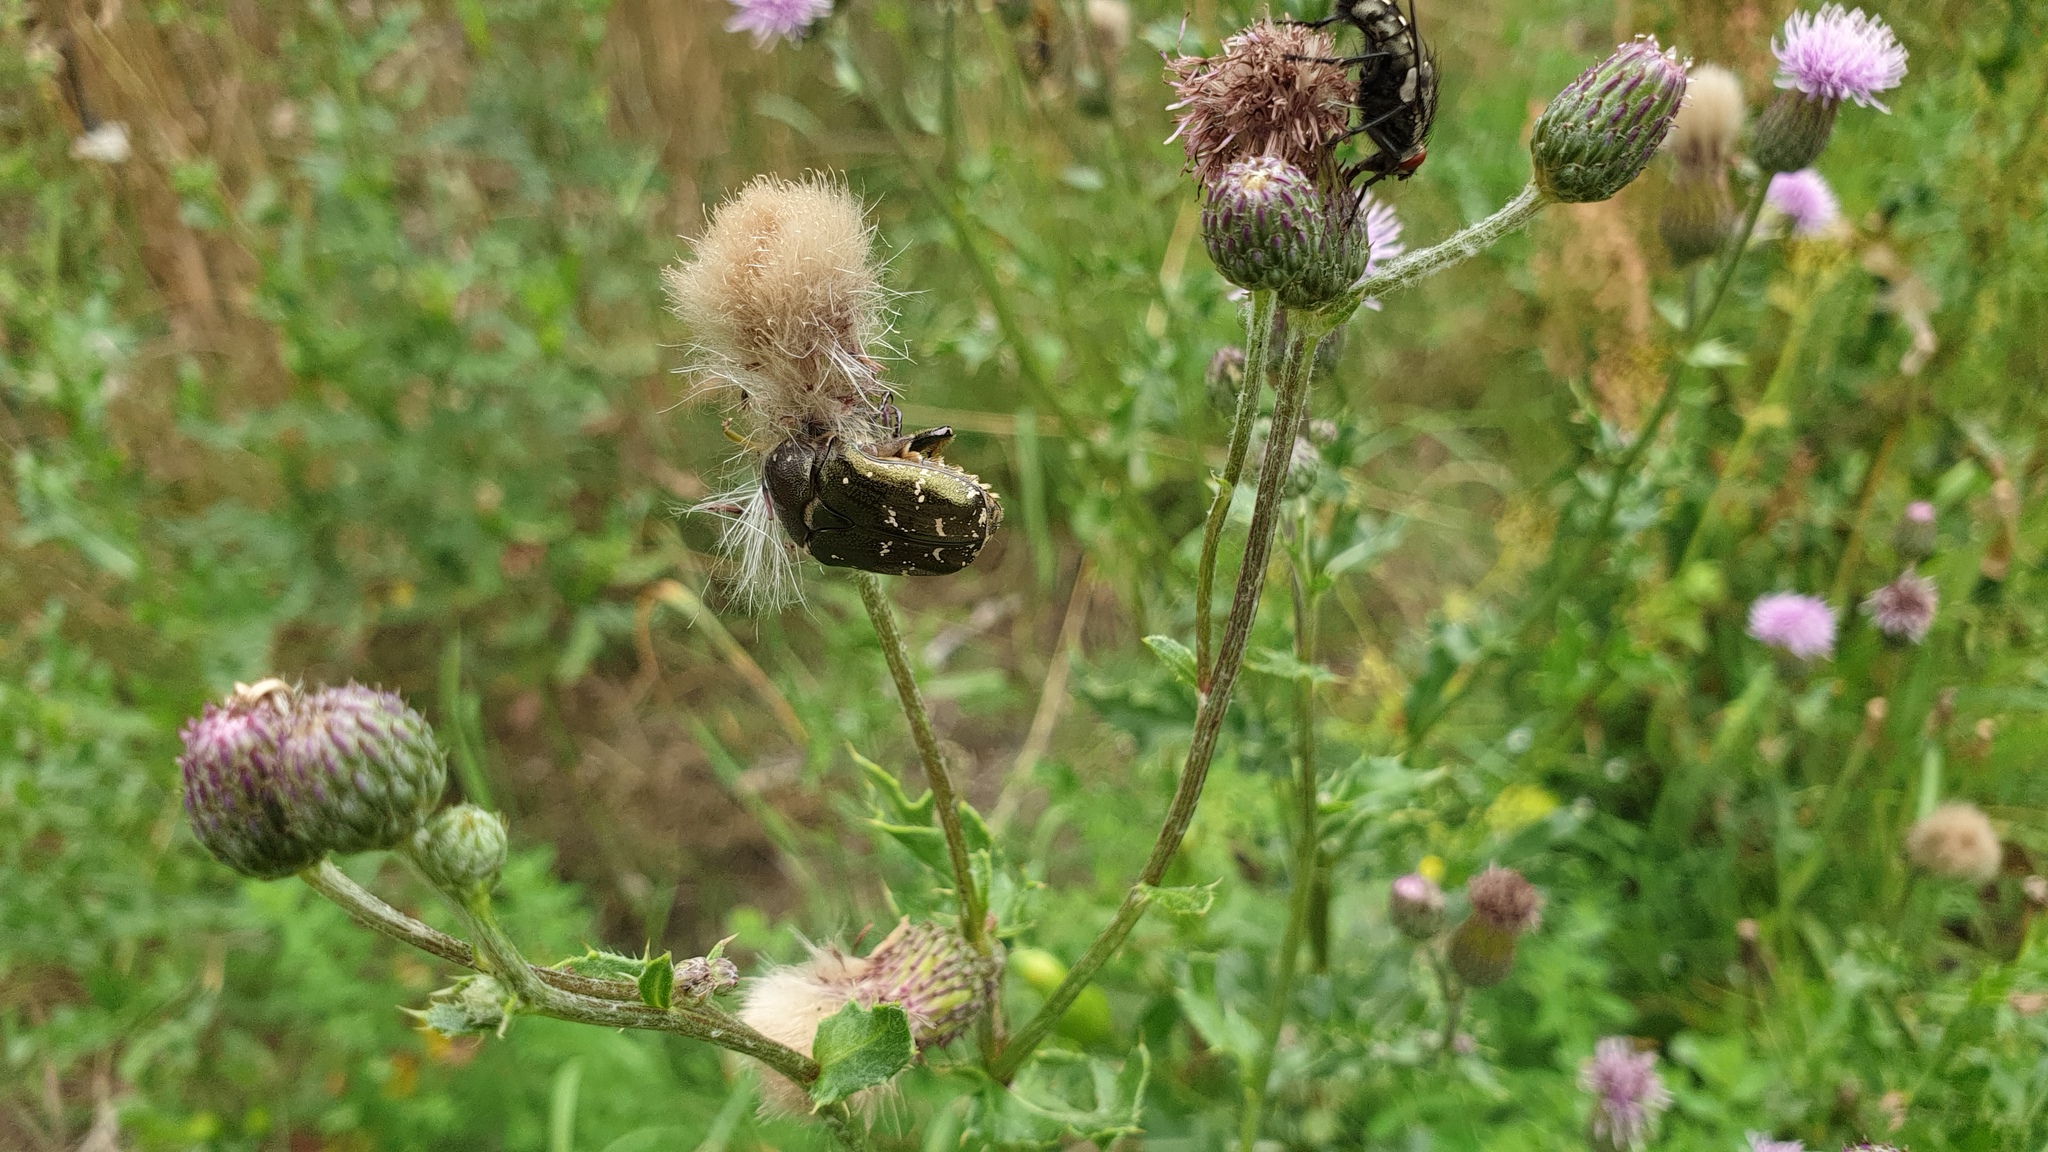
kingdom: Animalia
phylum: Arthropoda
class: Insecta
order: Coleoptera
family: Scarabaeidae
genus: Protaetia
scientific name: Protaetia cuprea
